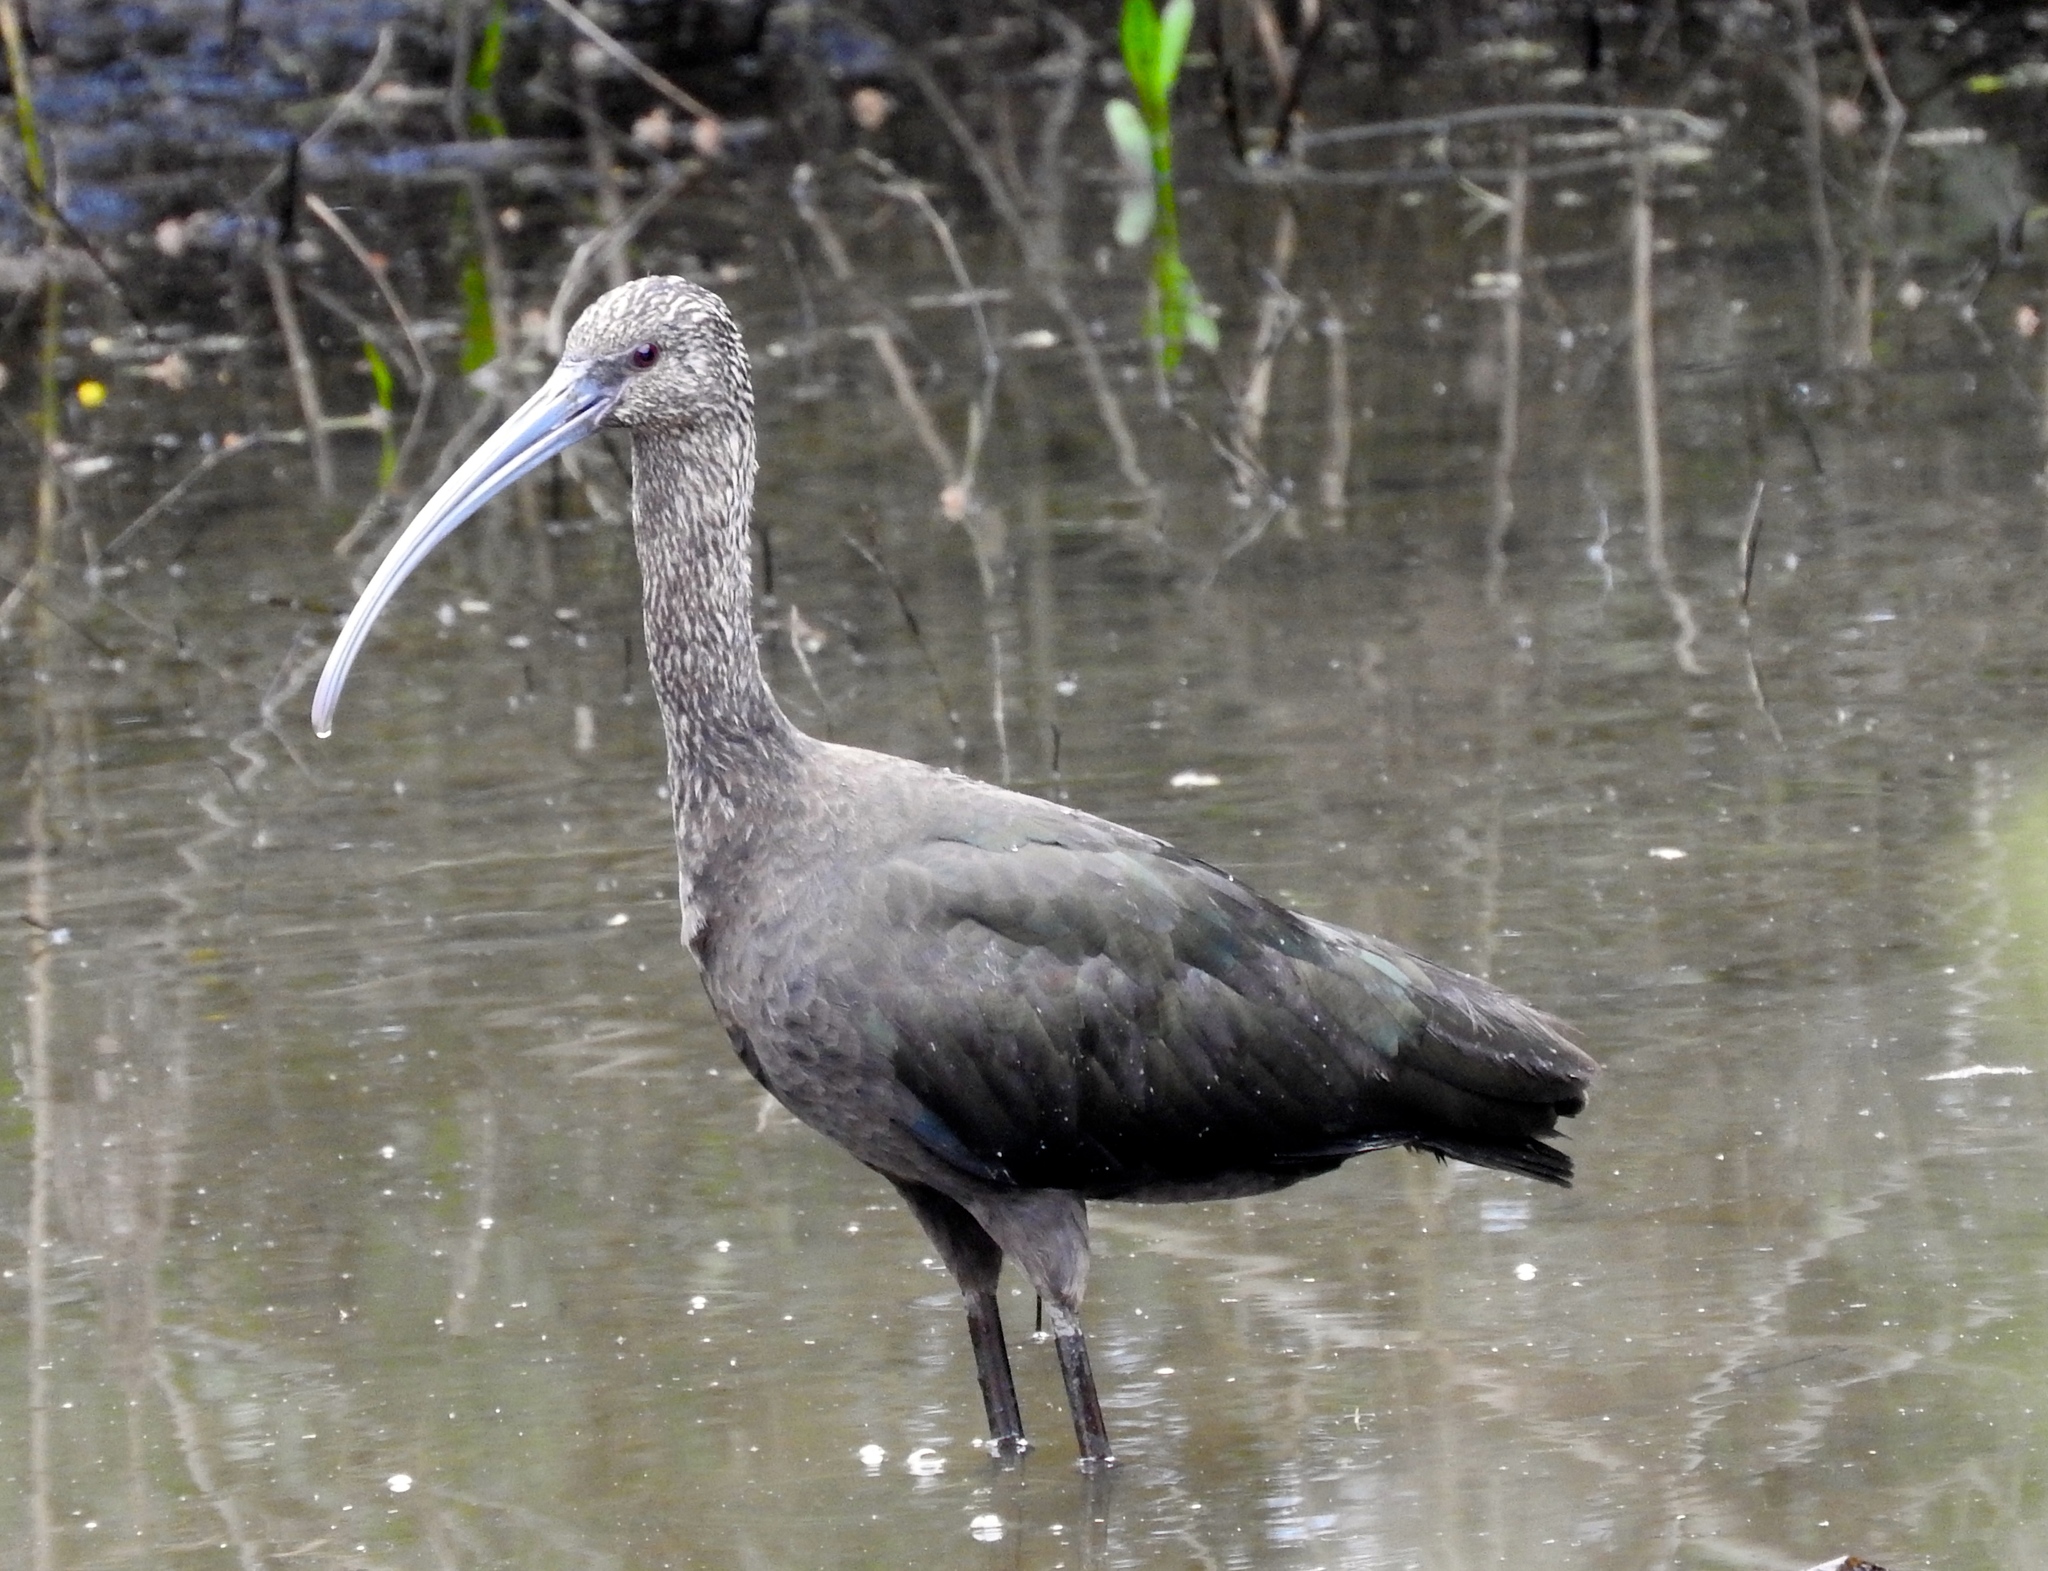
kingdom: Animalia
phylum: Chordata
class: Aves
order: Pelecaniformes
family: Threskiornithidae
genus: Plegadis
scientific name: Plegadis chihi
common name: White-faced ibis
